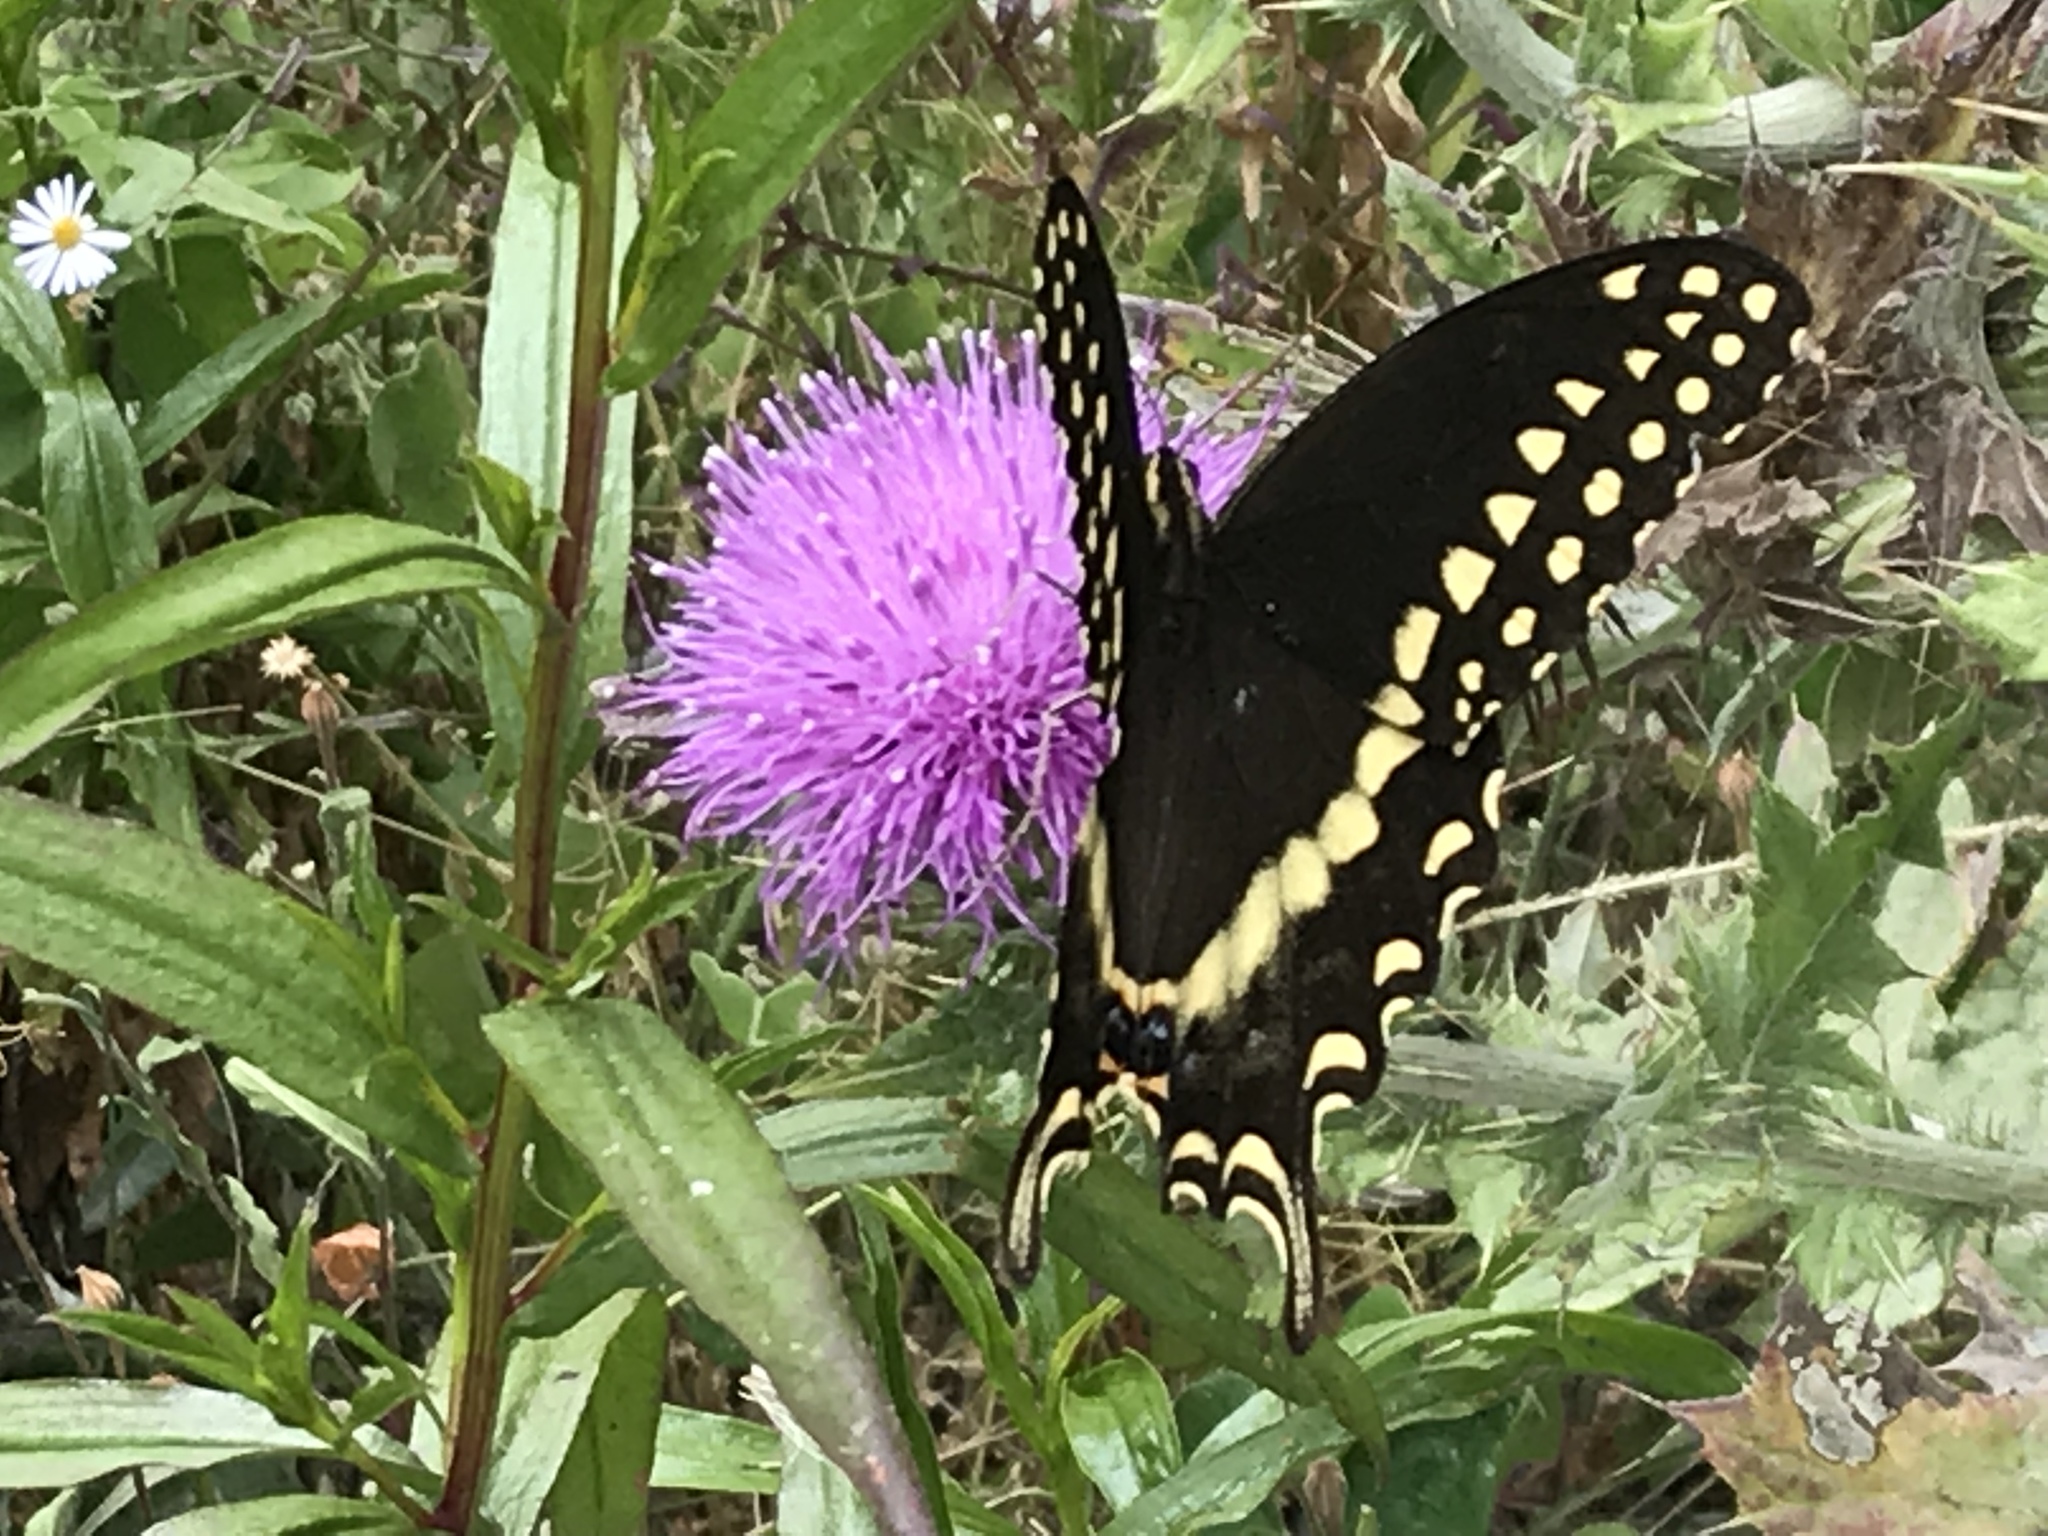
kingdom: Animalia
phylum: Arthropoda
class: Insecta
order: Lepidoptera
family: Papilionidae
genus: Papilio
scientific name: Papilio palamedes
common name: Palamedes swallowtail
